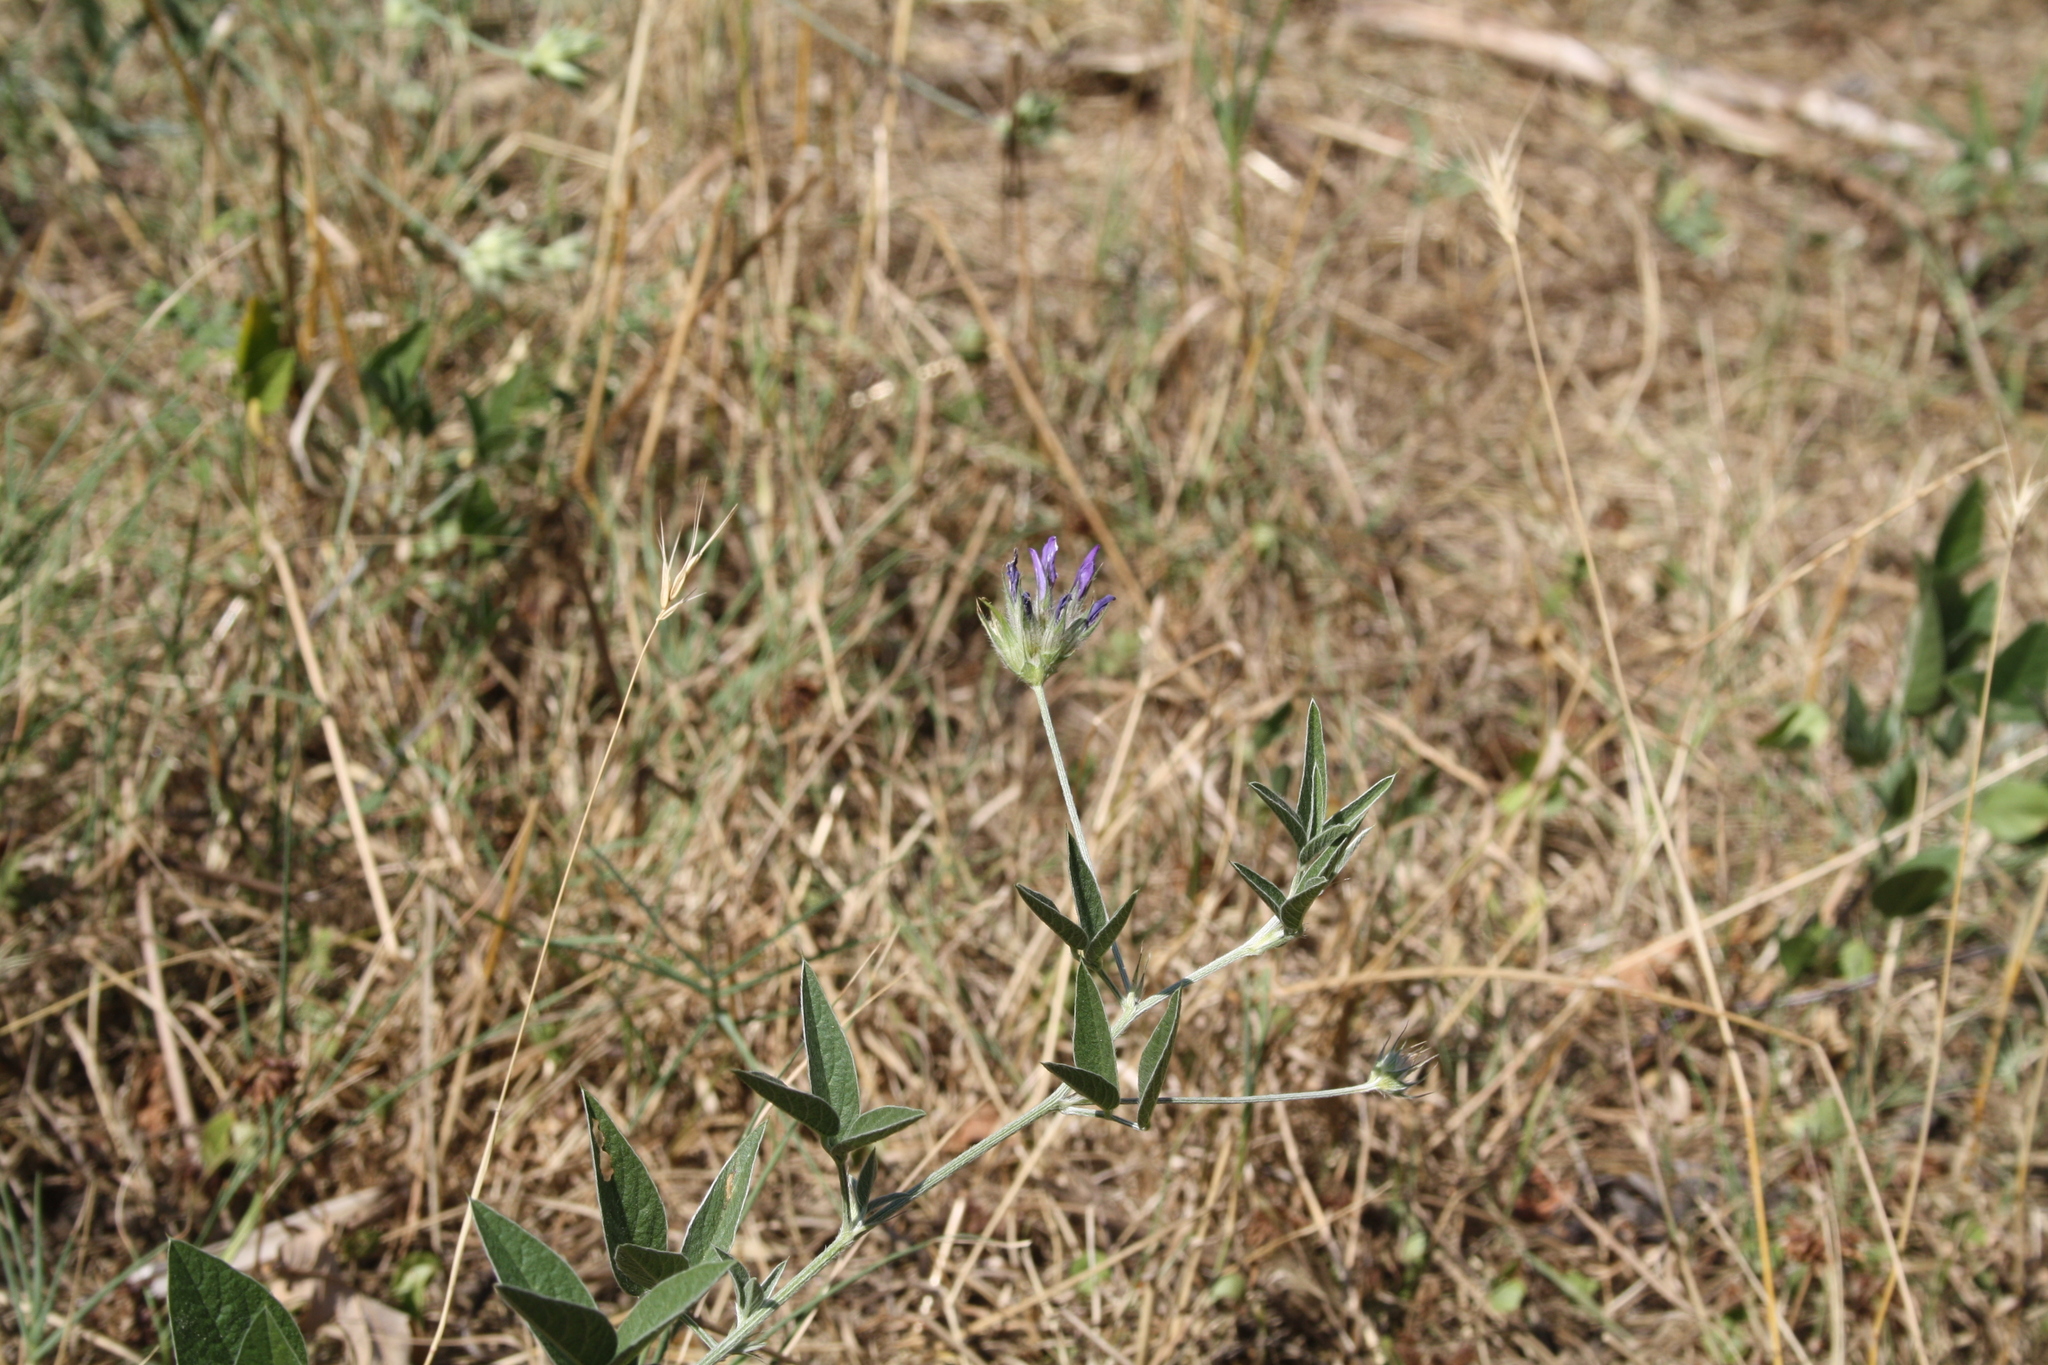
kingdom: Plantae
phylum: Tracheophyta
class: Magnoliopsida
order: Fabales
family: Fabaceae
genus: Bituminaria
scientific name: Bituminaria bituminosa
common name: Arabian pea
